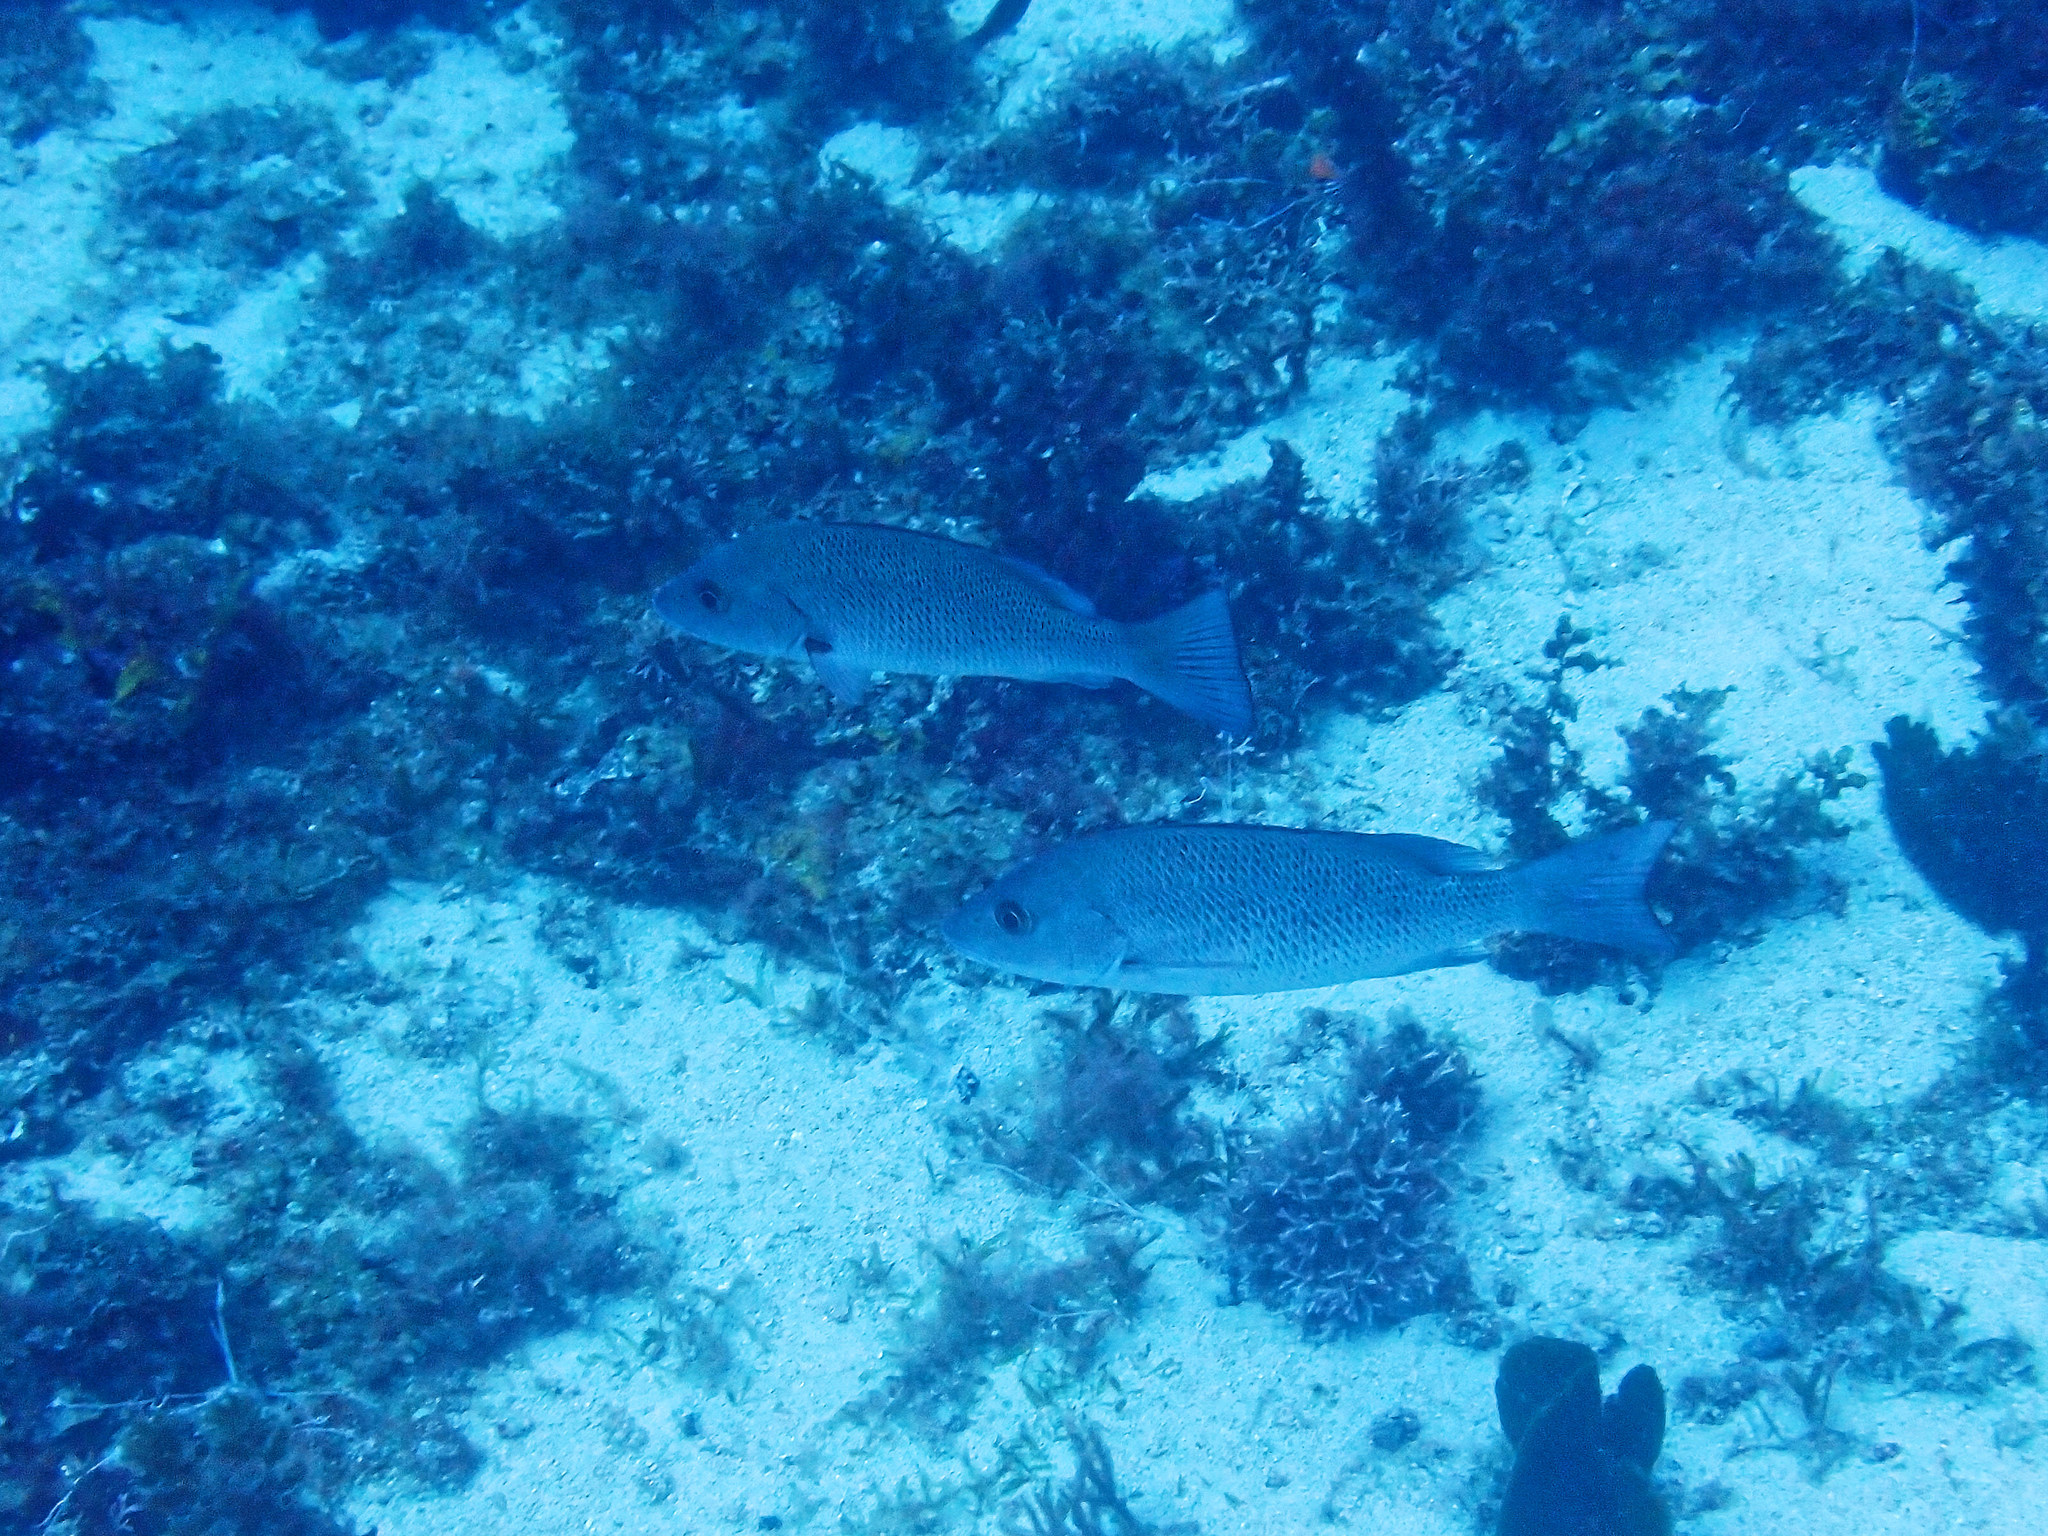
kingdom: Animalia
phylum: Chordata
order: Perciformes
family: Lutjanidae
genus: Lutjanus
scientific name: Lutjanus griseus
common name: Gray snapper
